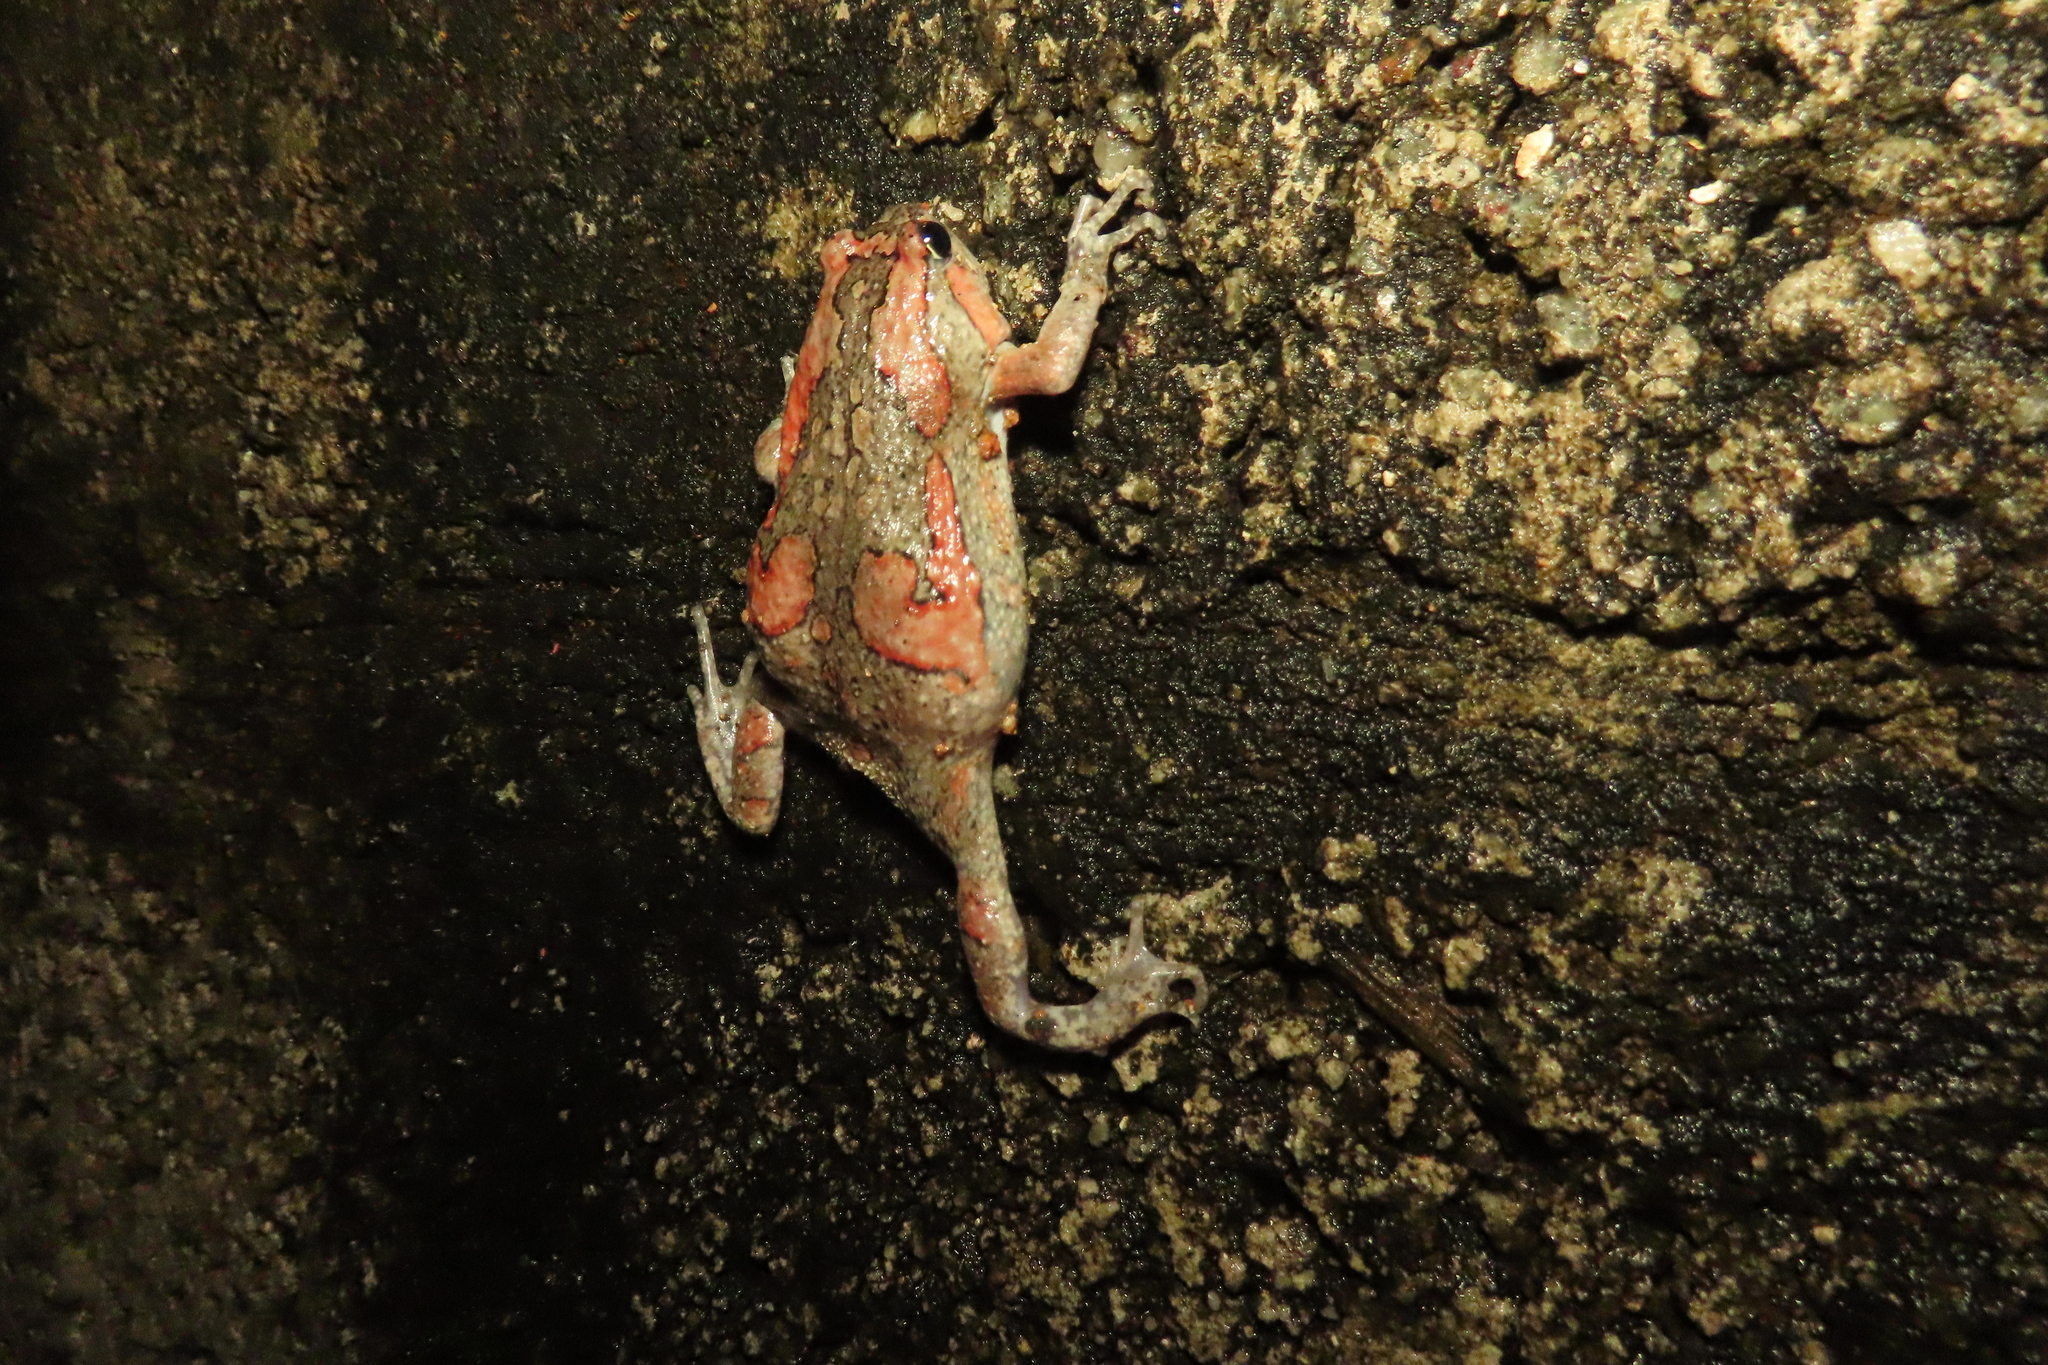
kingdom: Animalia
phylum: Chordata
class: Amphibia
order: Anura
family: Microhylidae
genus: Uperodon
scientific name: Uperodon taprobanicus
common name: Ceylon kaloula
